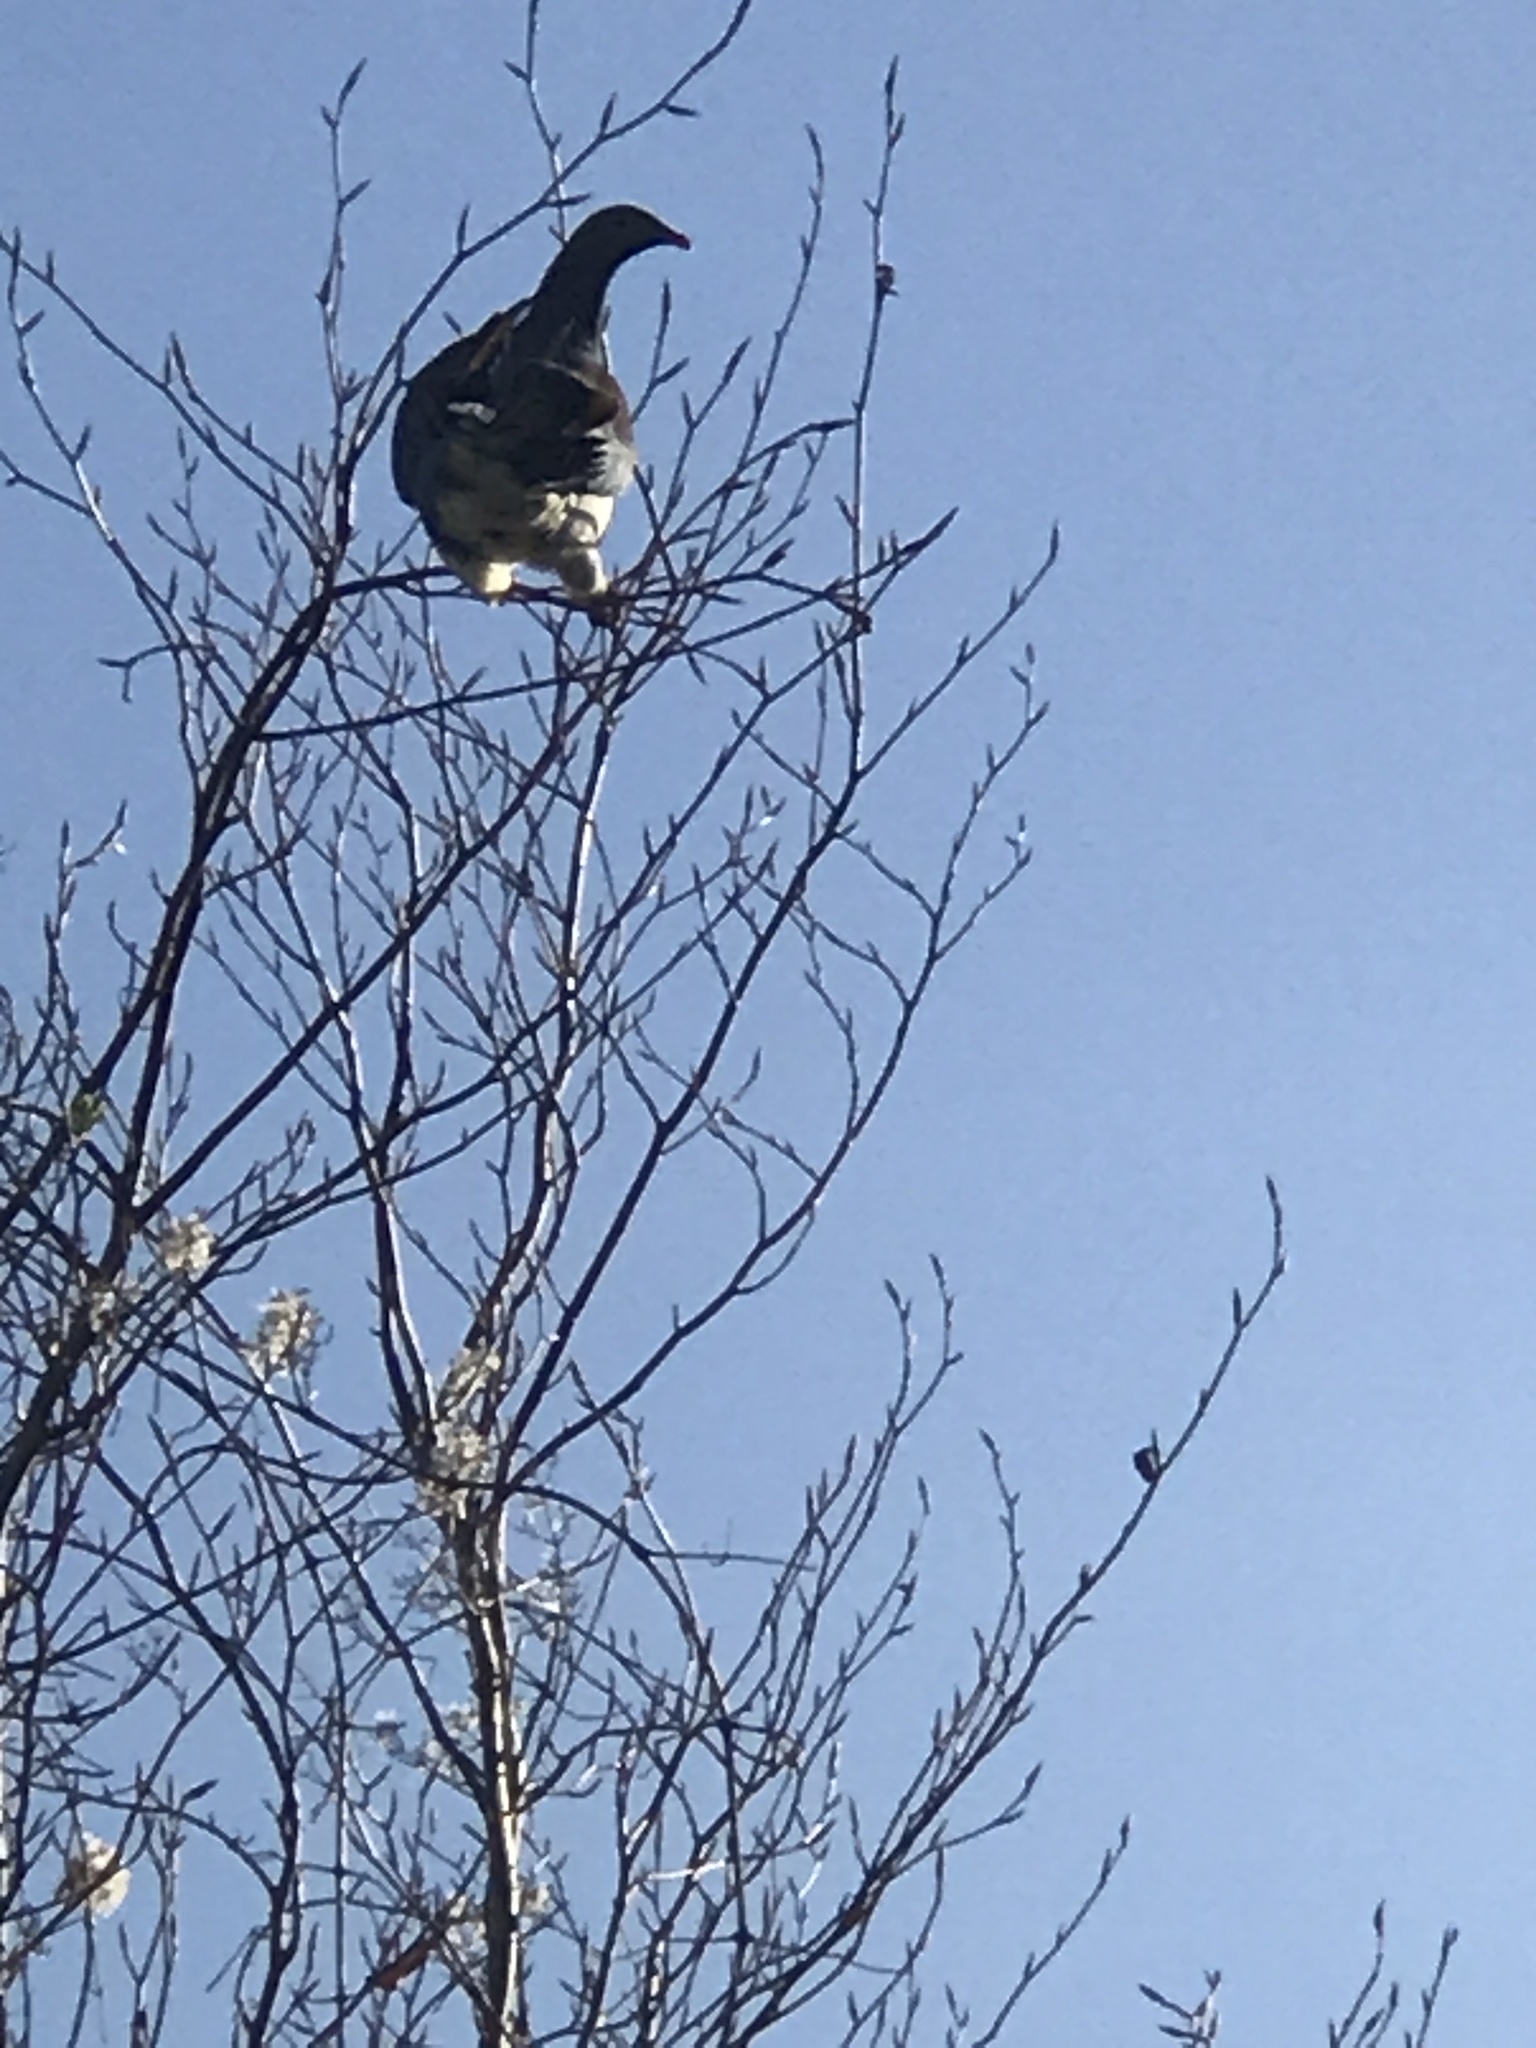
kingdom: Animalia
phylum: Chordata
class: Aves
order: Columbiformes
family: Columbidae
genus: Hemiphaga
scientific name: Hemiphaga novaeseelandiae
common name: New zealand pigeon
